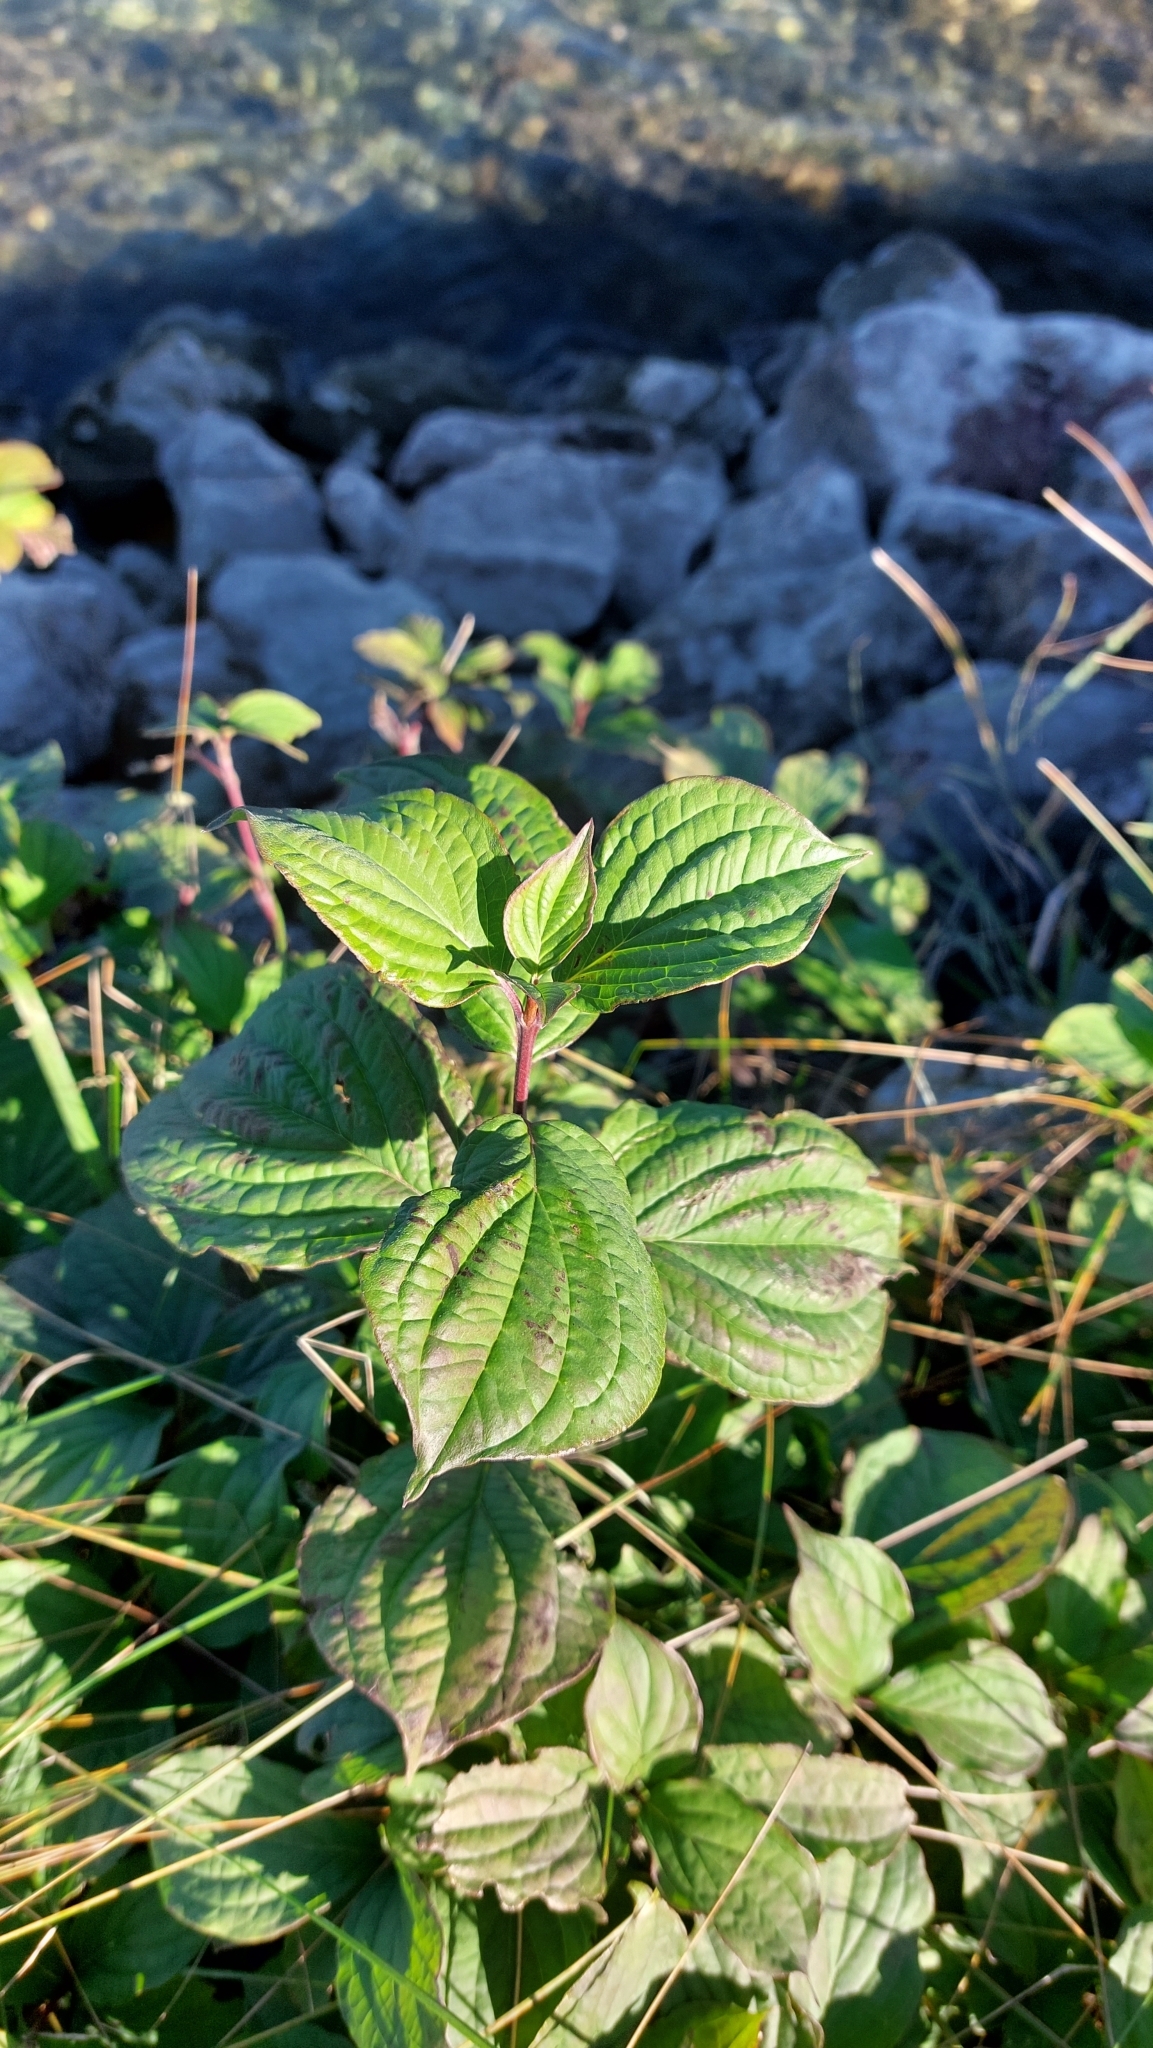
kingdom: Plantae
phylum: Tracheophyta
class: Magnoliopsida
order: Cornales
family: Cornaceae
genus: Cornus
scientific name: Cornus sanguinea
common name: Dogwood
